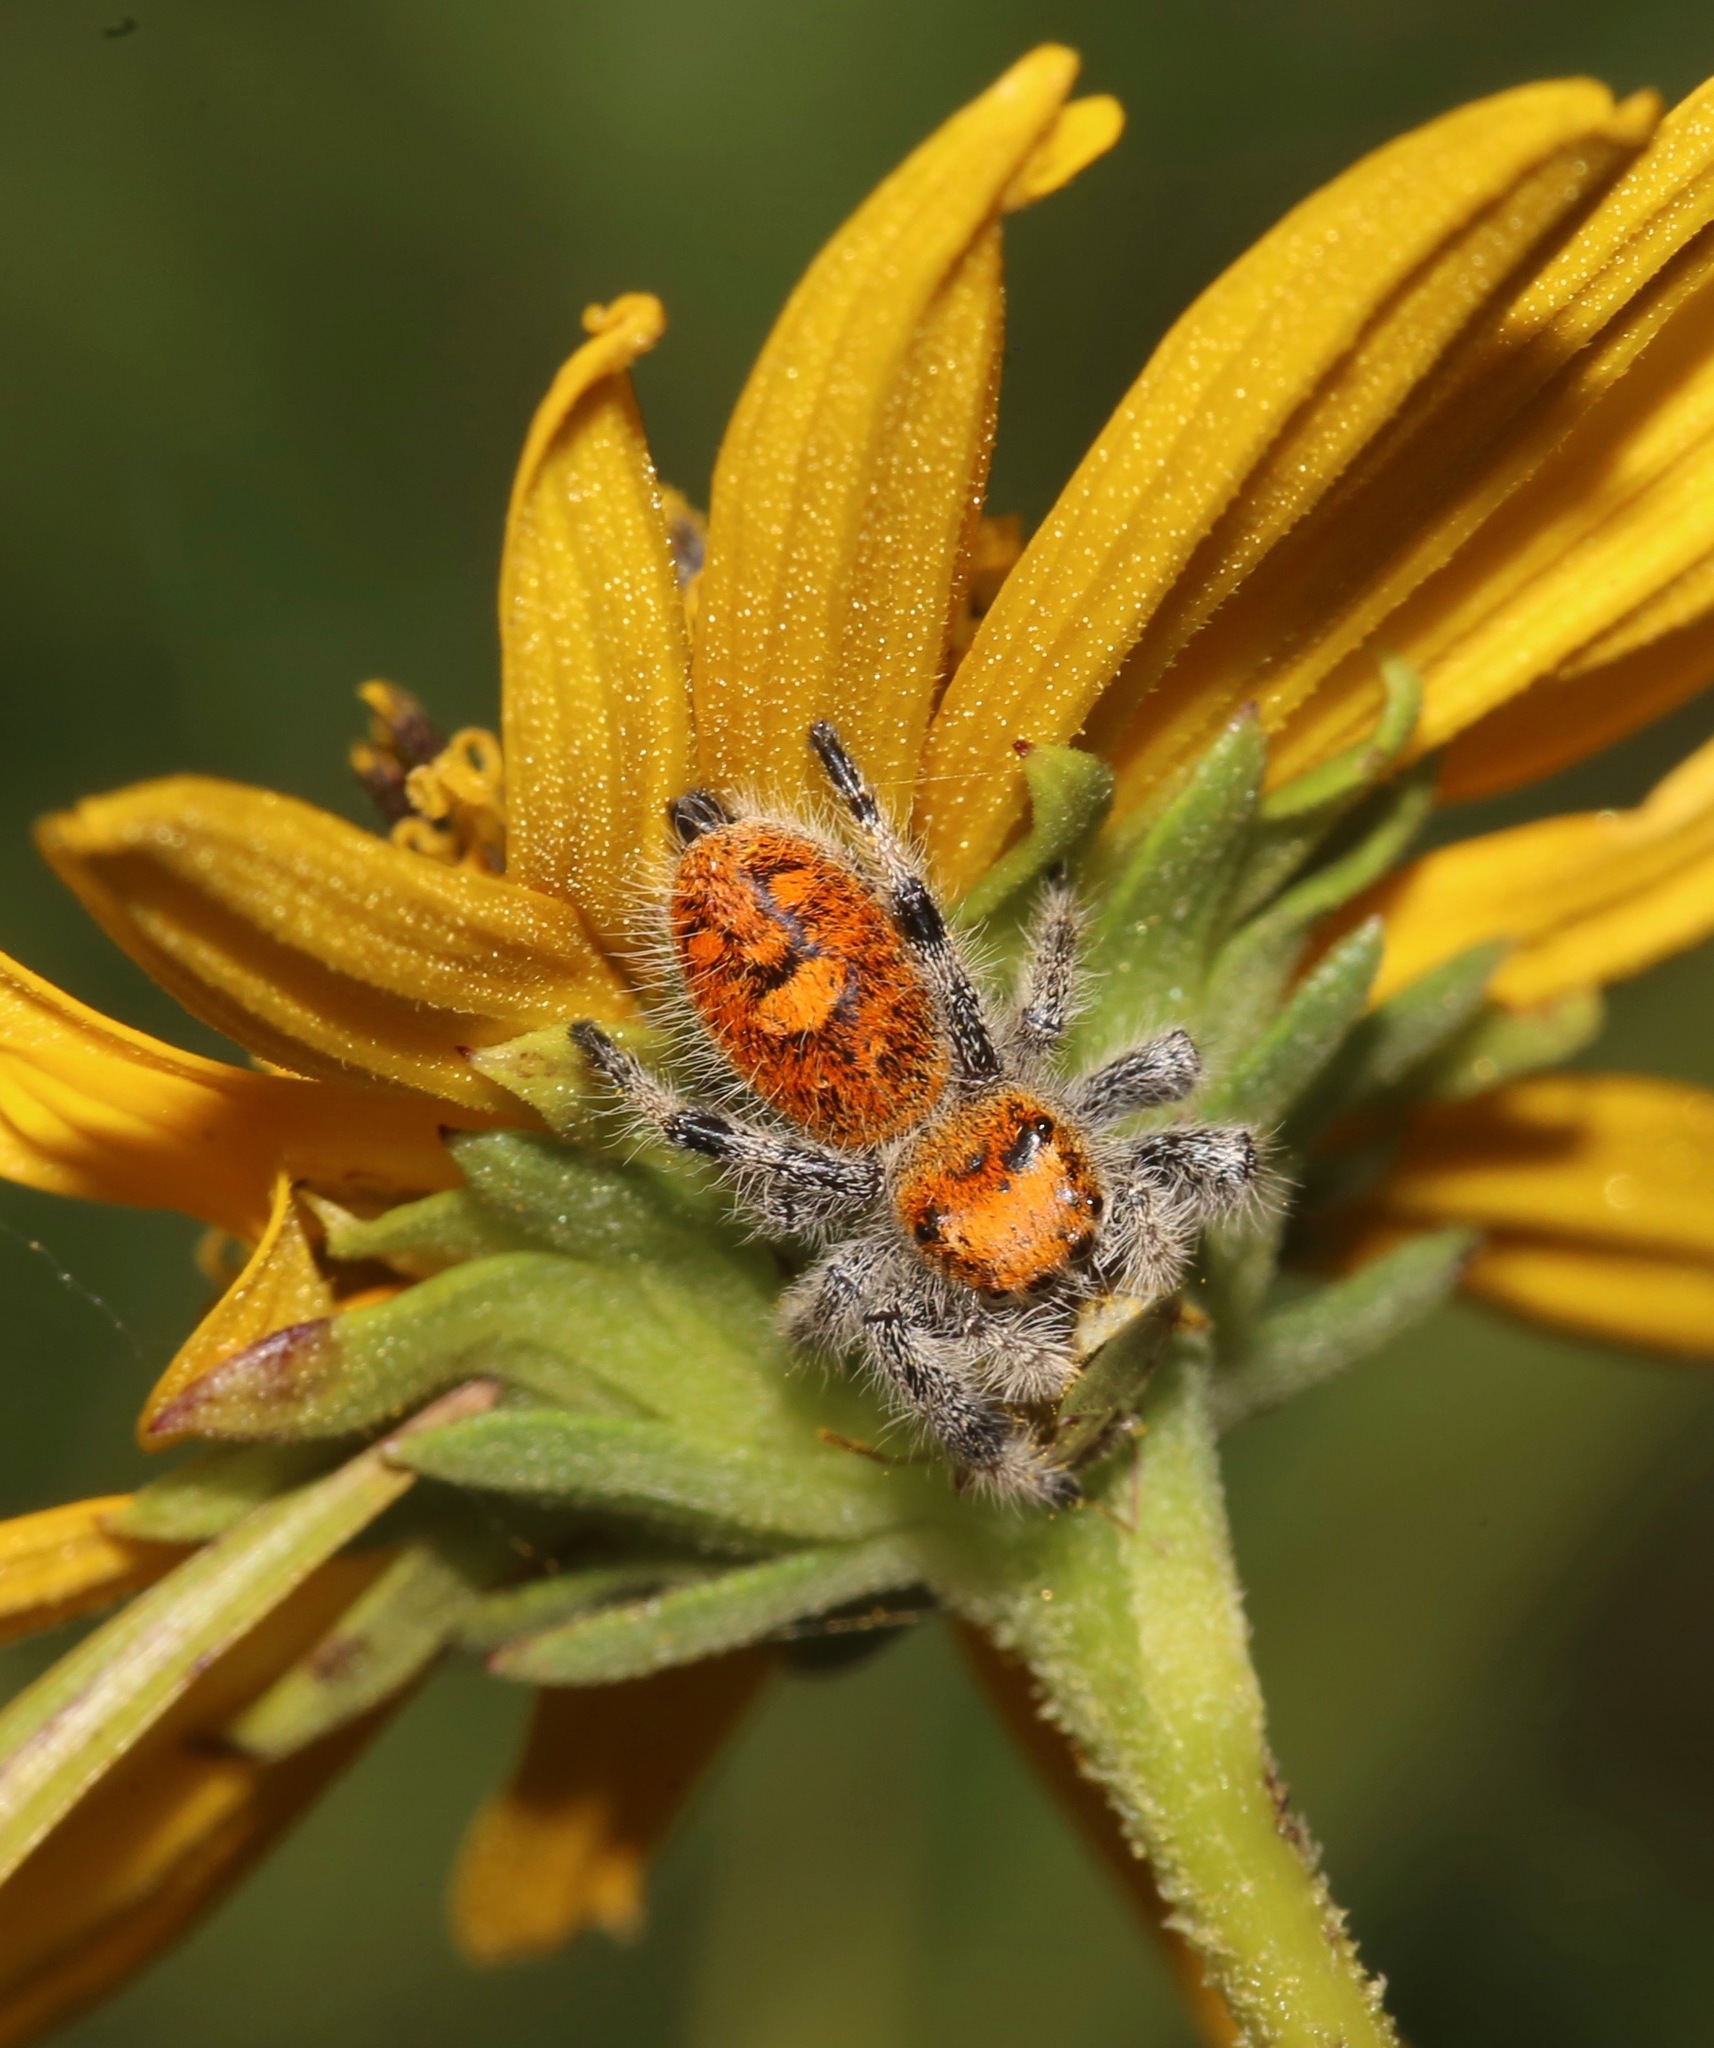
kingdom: Animalia
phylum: Arthropoda
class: Arachnida
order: Araneae
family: Salticidae
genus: Phidippus
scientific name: Phidippus regius
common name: Regal jumper
